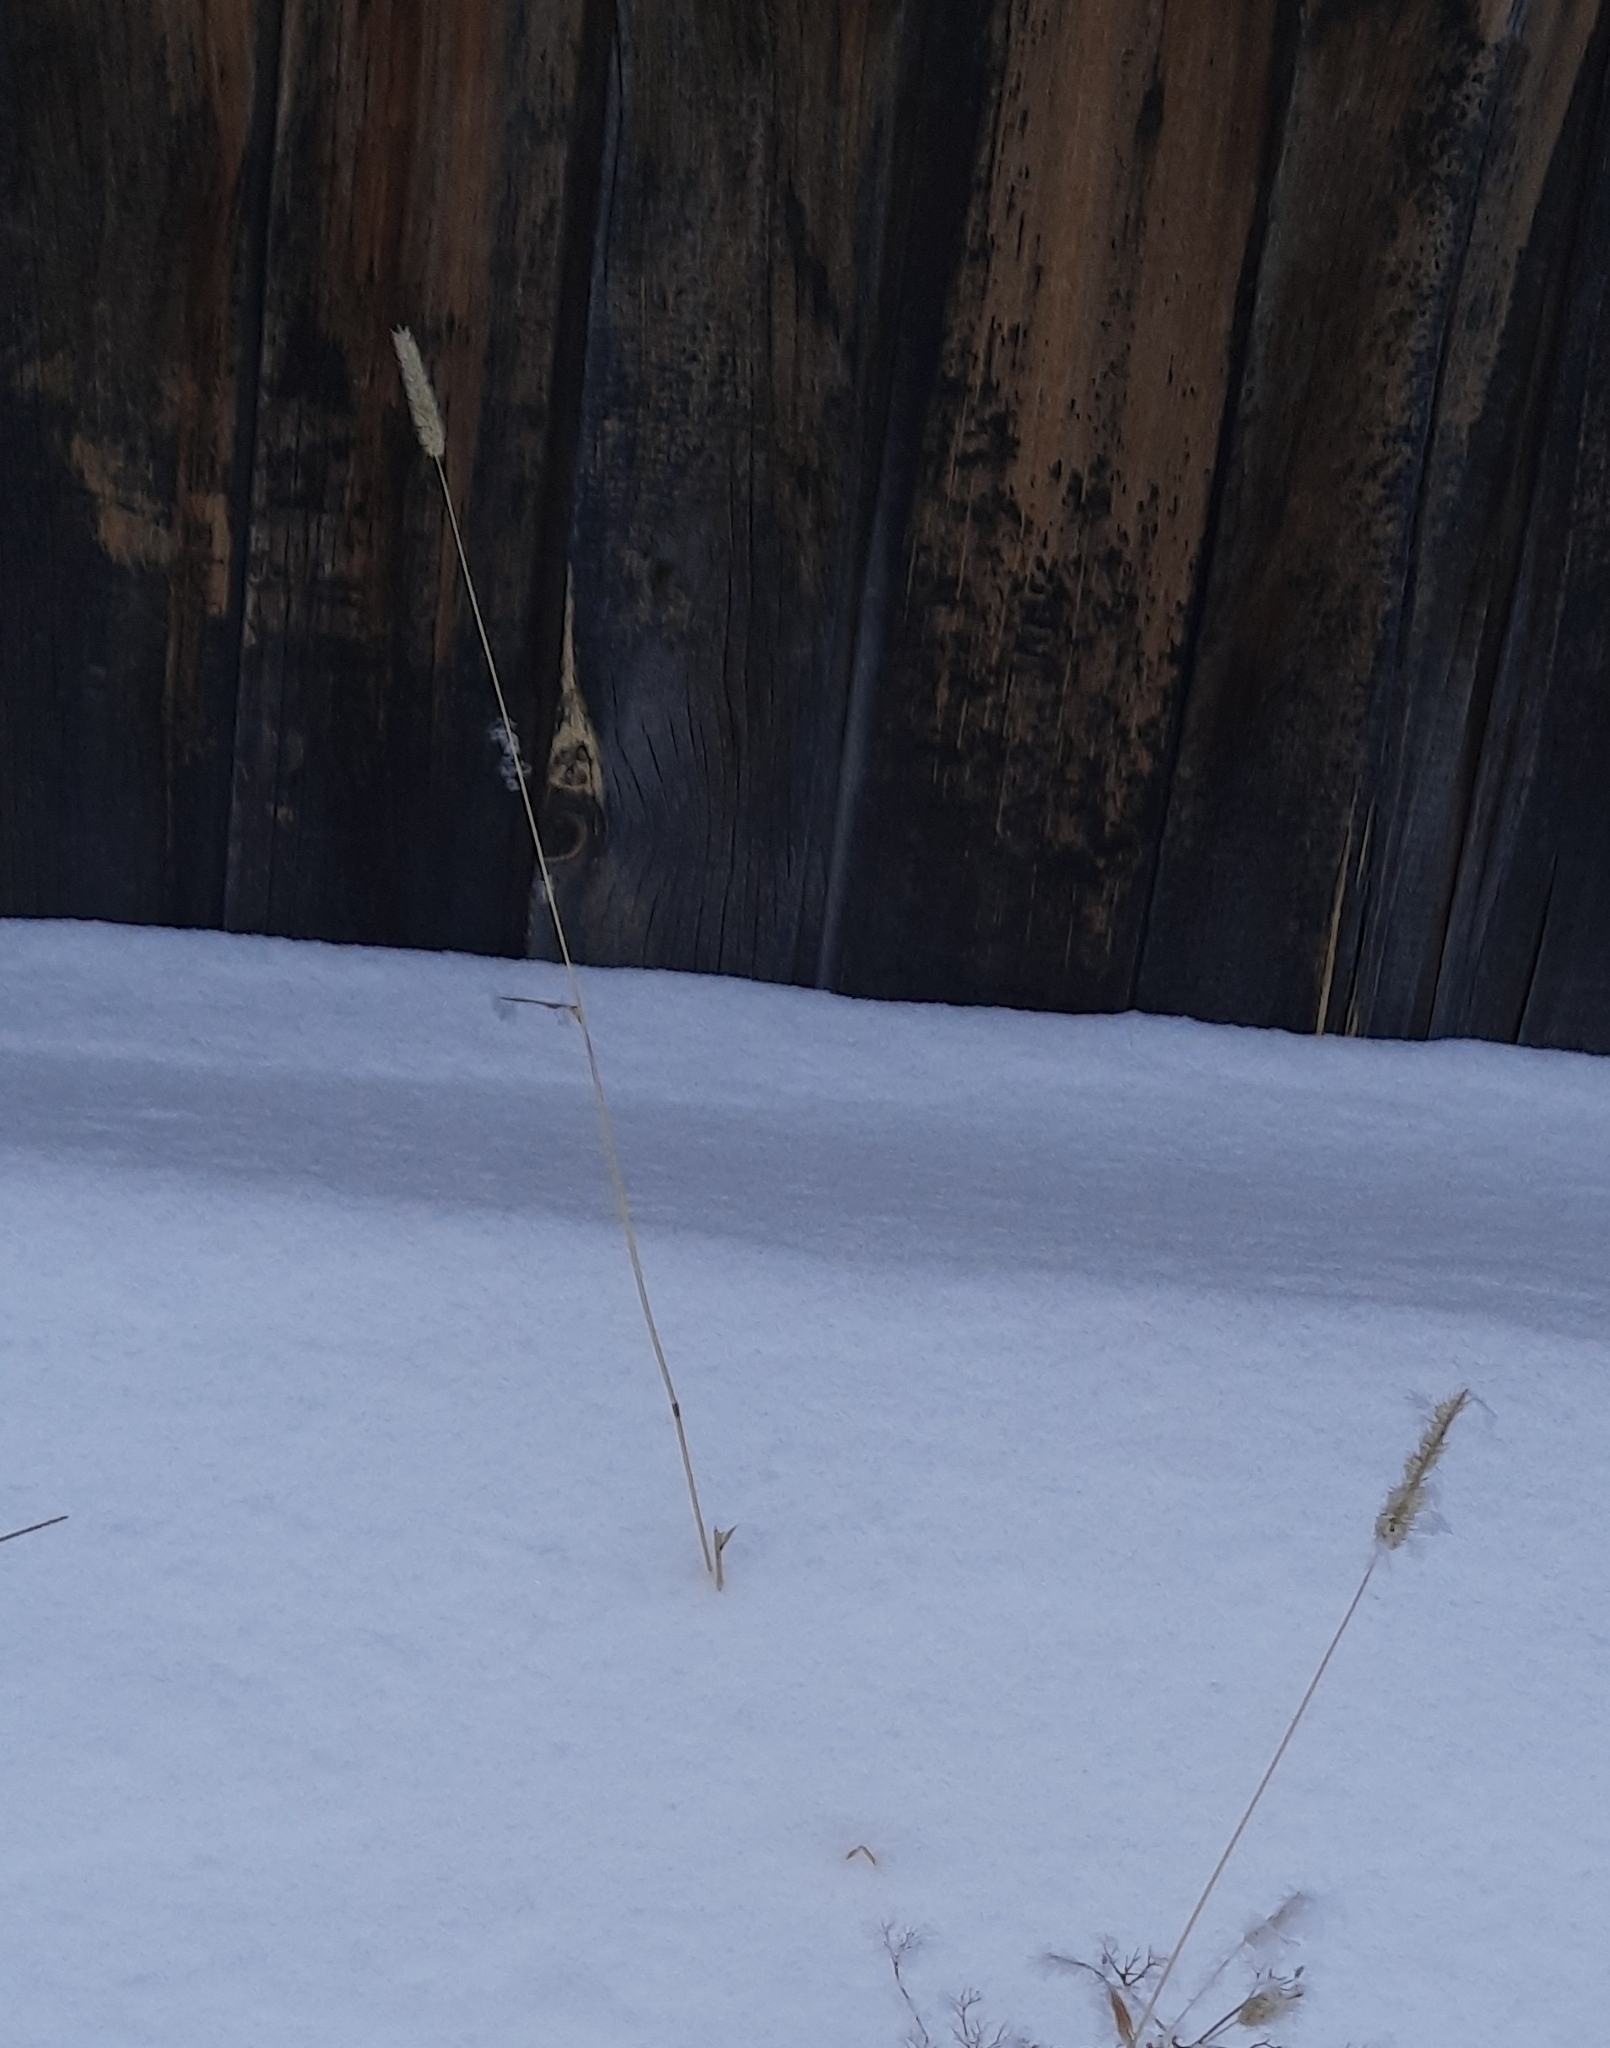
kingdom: Plantae
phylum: Tracheophyta
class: Liliopsida
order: Poales
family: Poaceae
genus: Phleum
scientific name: Phleum pratense
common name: Timothy grass
